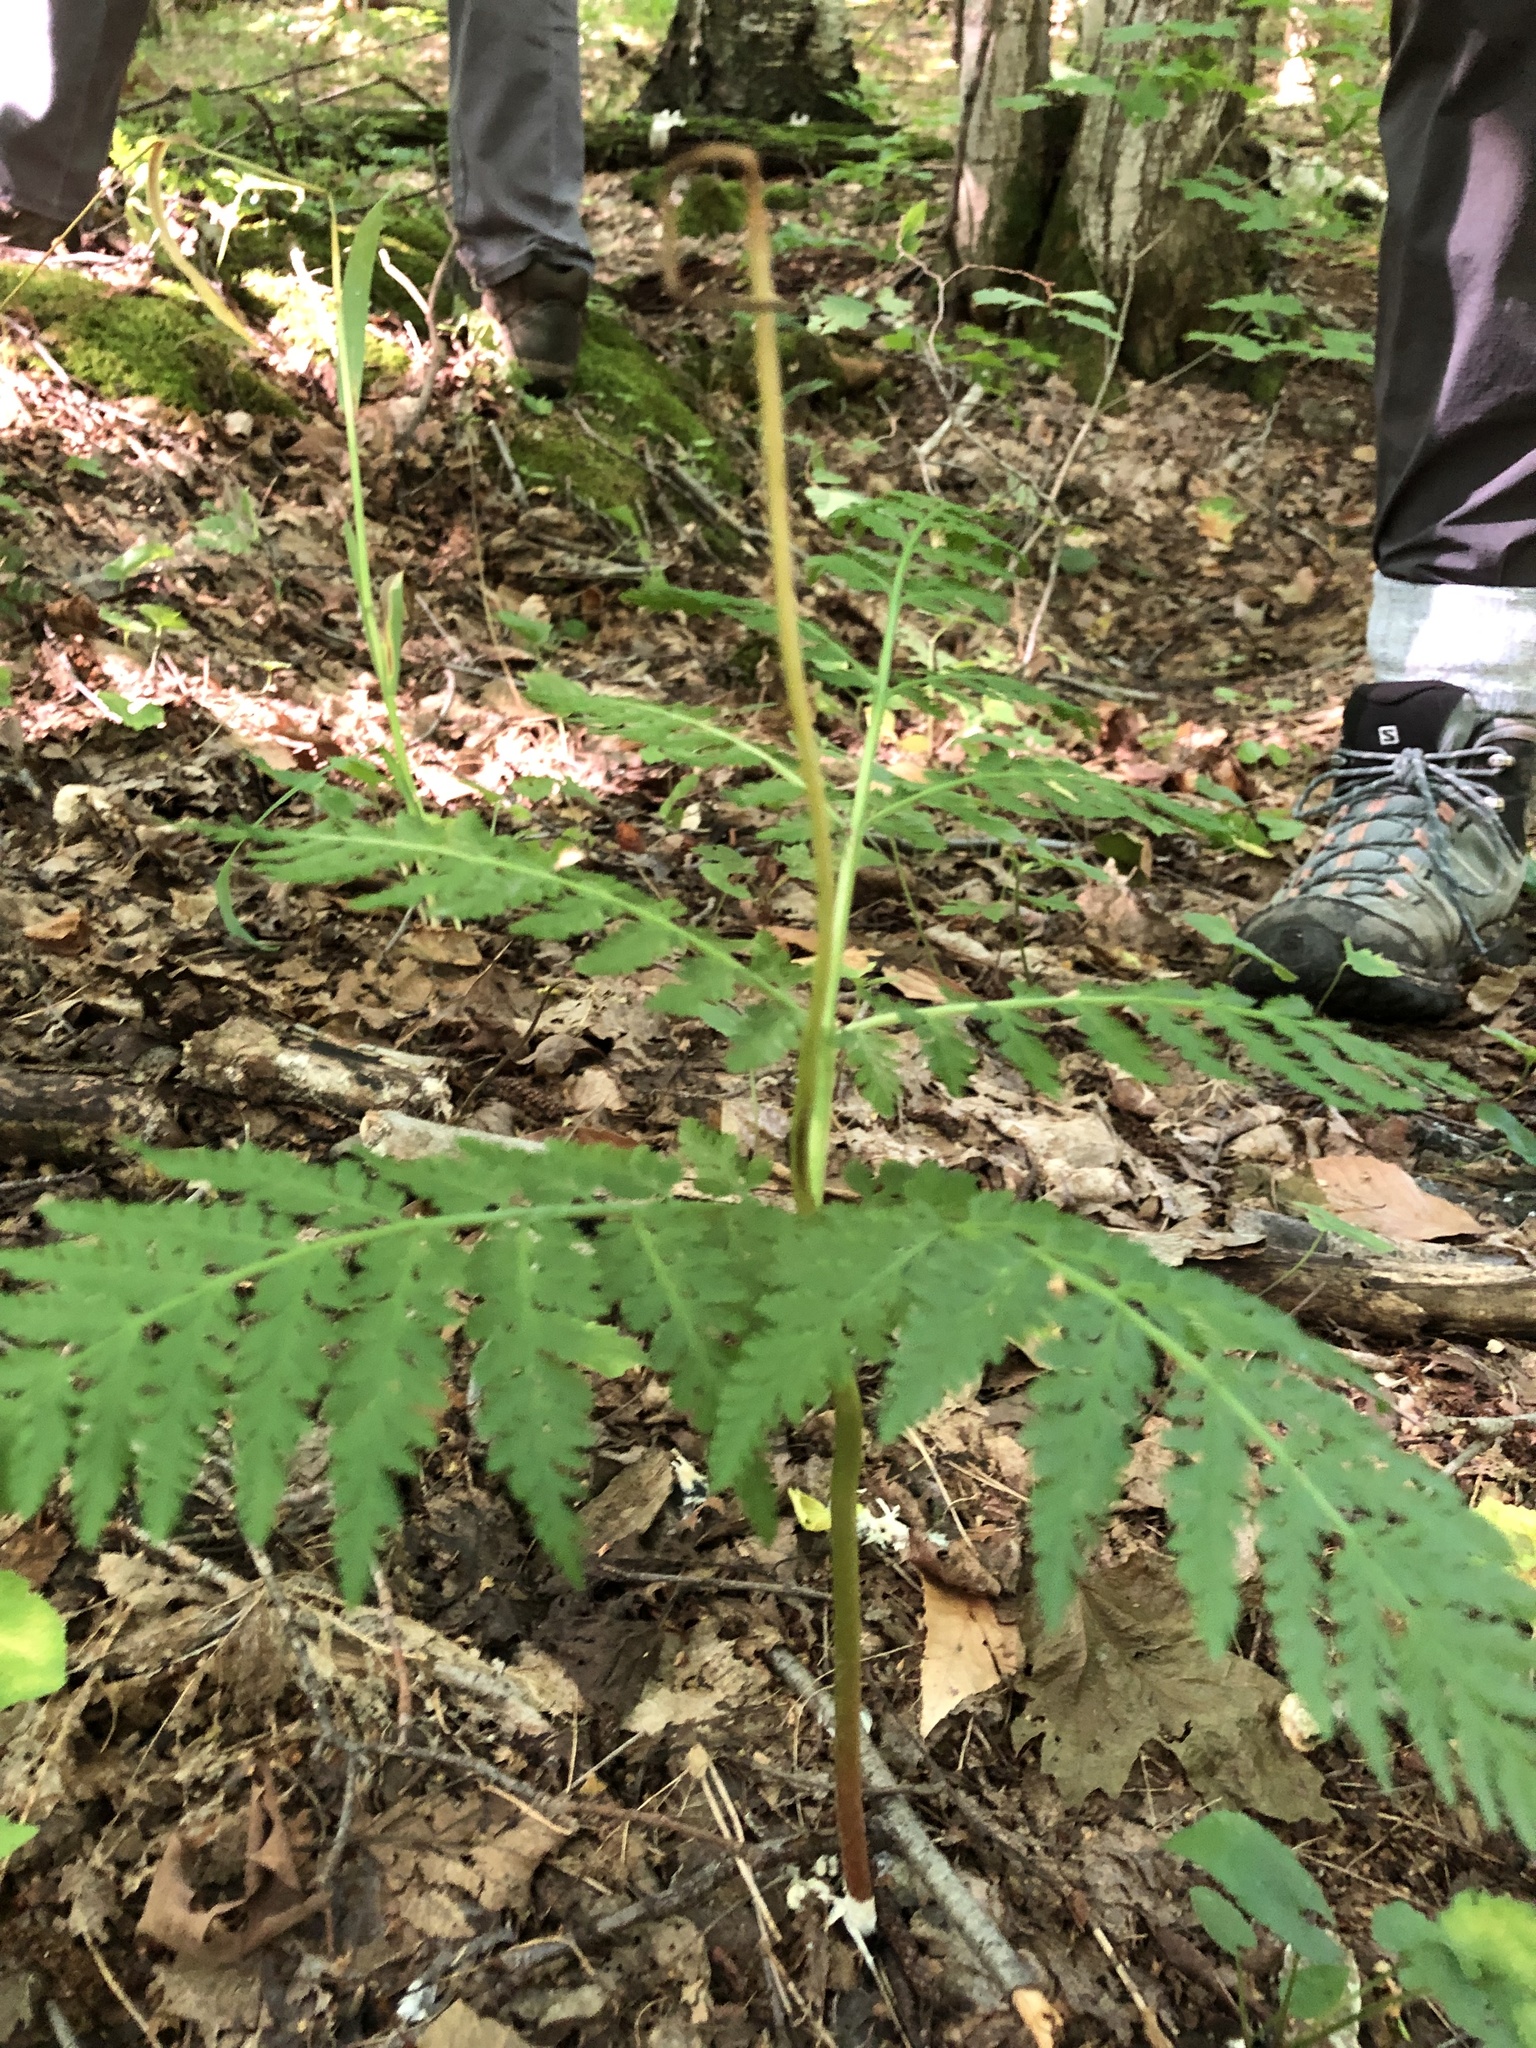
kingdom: Plantae
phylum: Tracheophyta
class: Polypodiopsida
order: Ophioglossales
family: Ophioglossaceae
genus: Botrypus
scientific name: Botrypus virginianus
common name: Common grapefern
